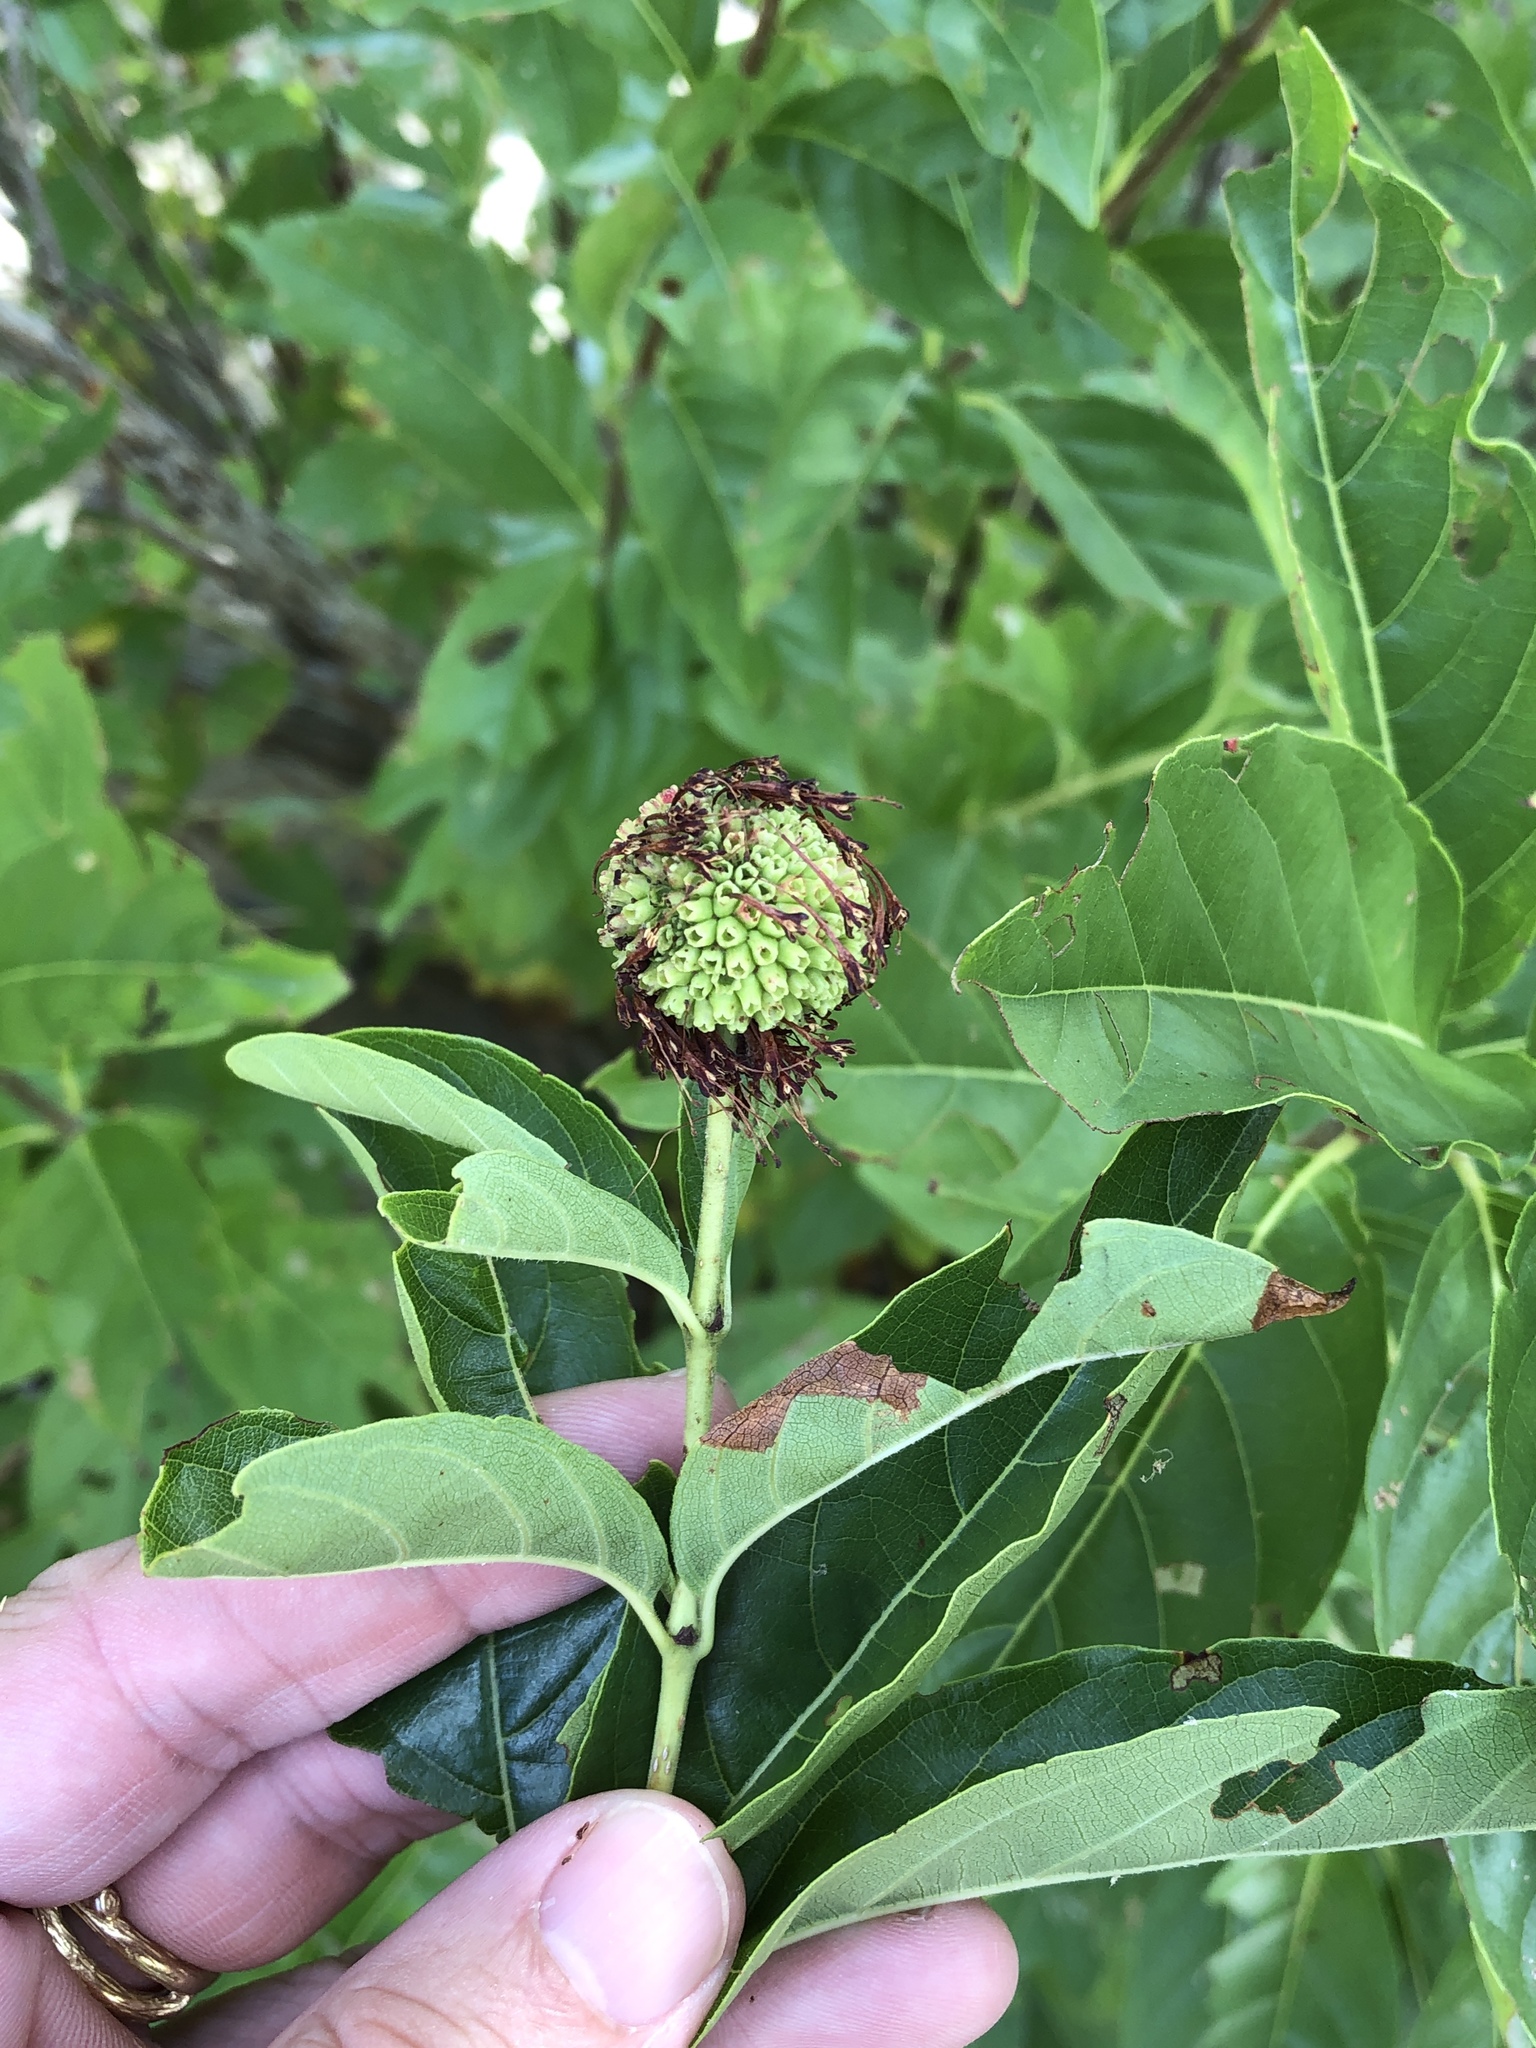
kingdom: Plantae
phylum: Tracheophyta
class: Magnoliopsida
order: Gentianales
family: Rubiaceae
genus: Cephalanthus
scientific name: Cephalanthus occidentalis
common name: Button-willow
